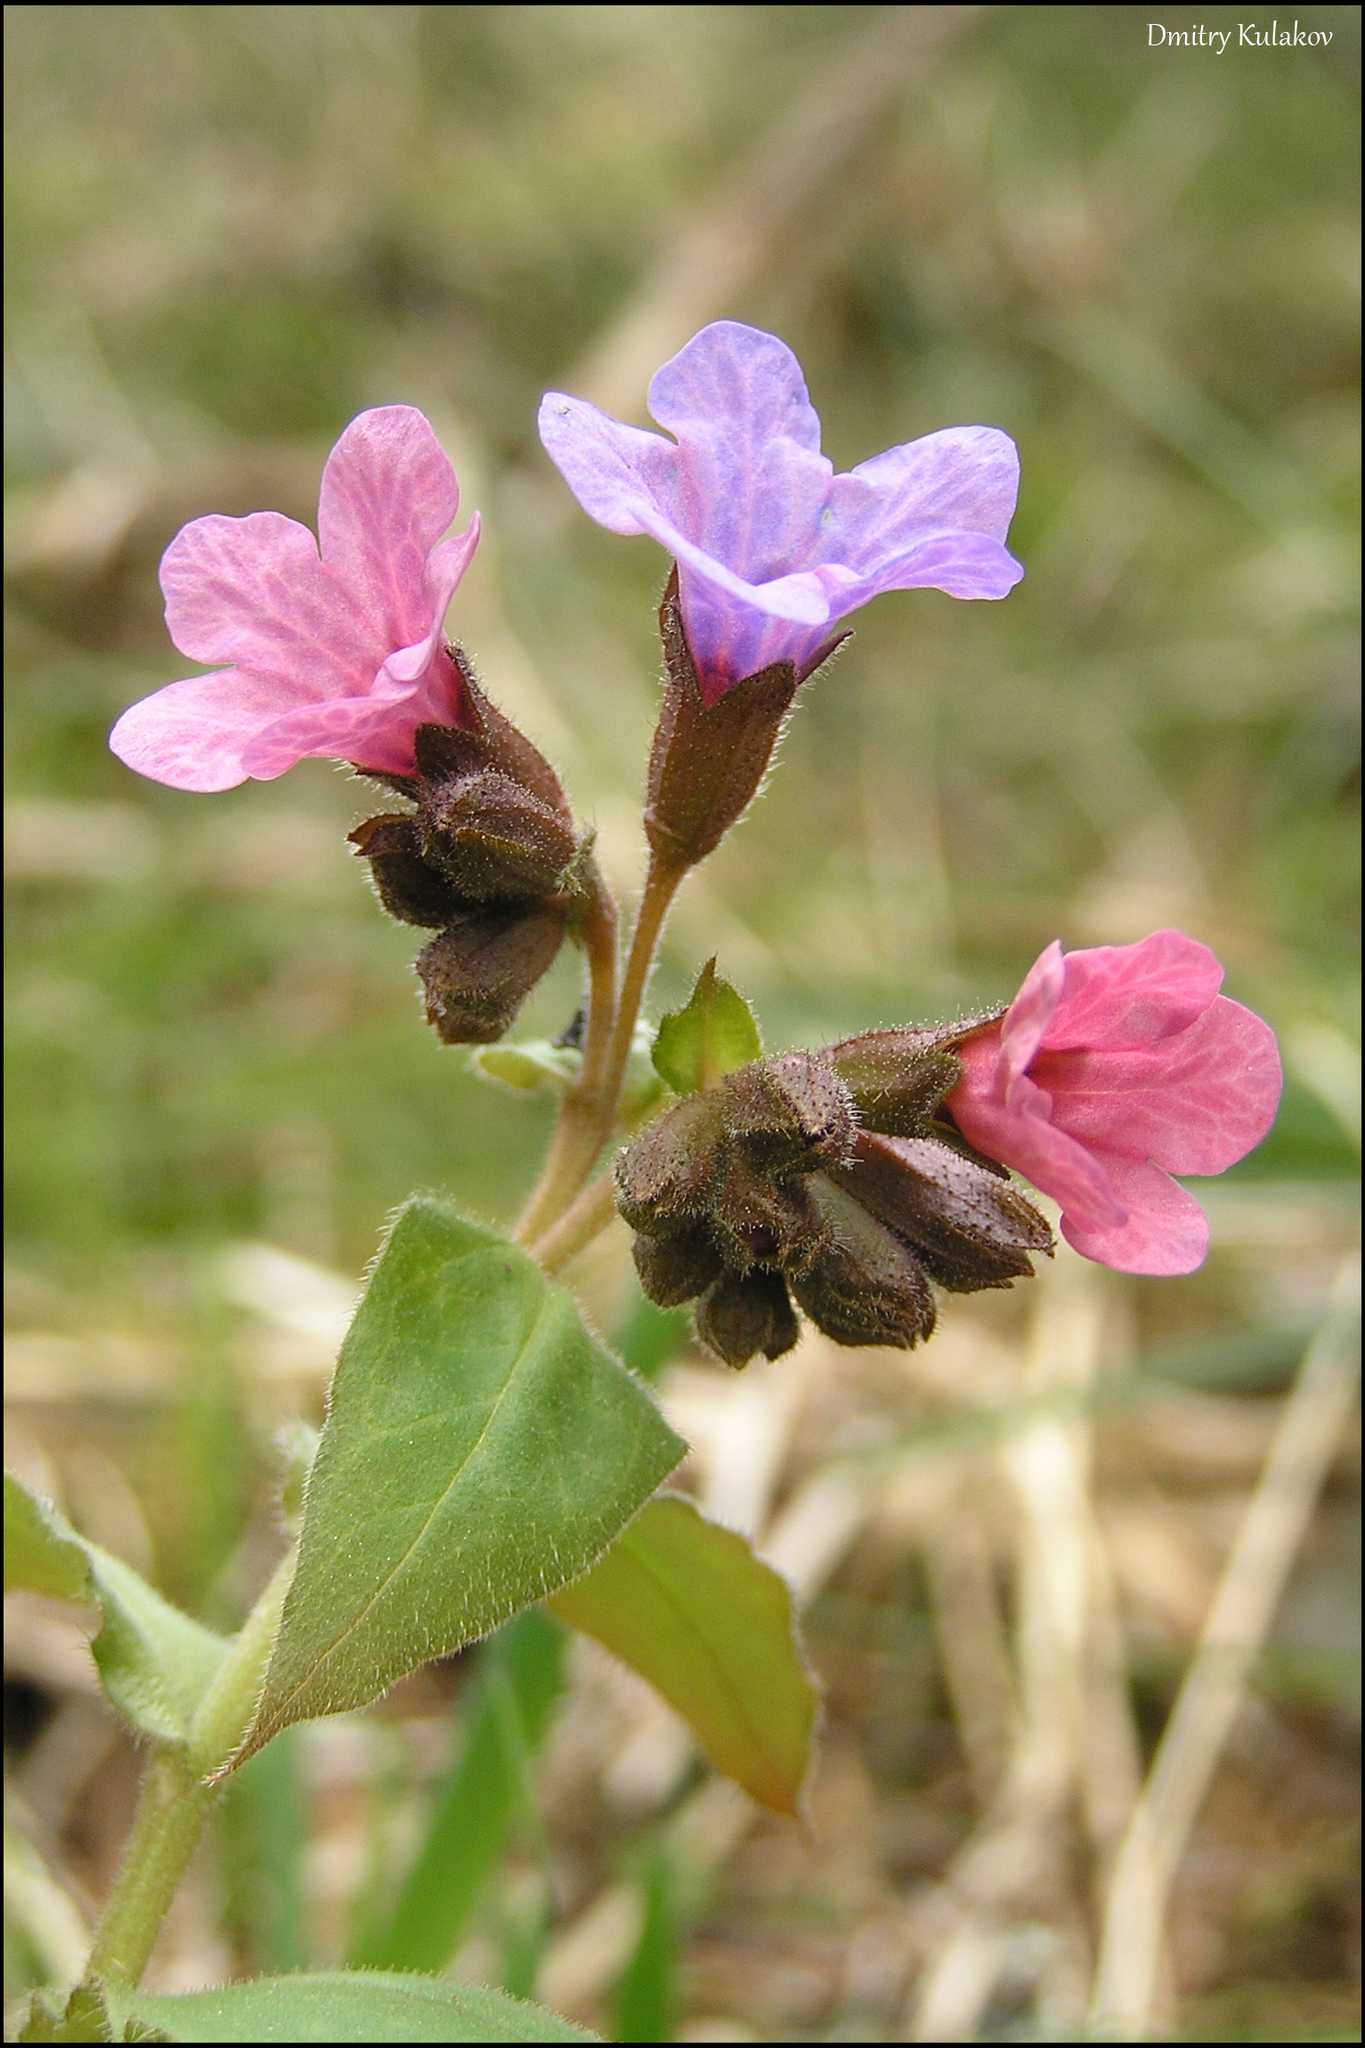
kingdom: Plantae
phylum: Tracheophyta
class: Magnoliopsida
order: Boraginales
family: Boraginaceae
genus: Pulmonaria
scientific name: Pulmonaria obscura
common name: Suffolk lungwort
